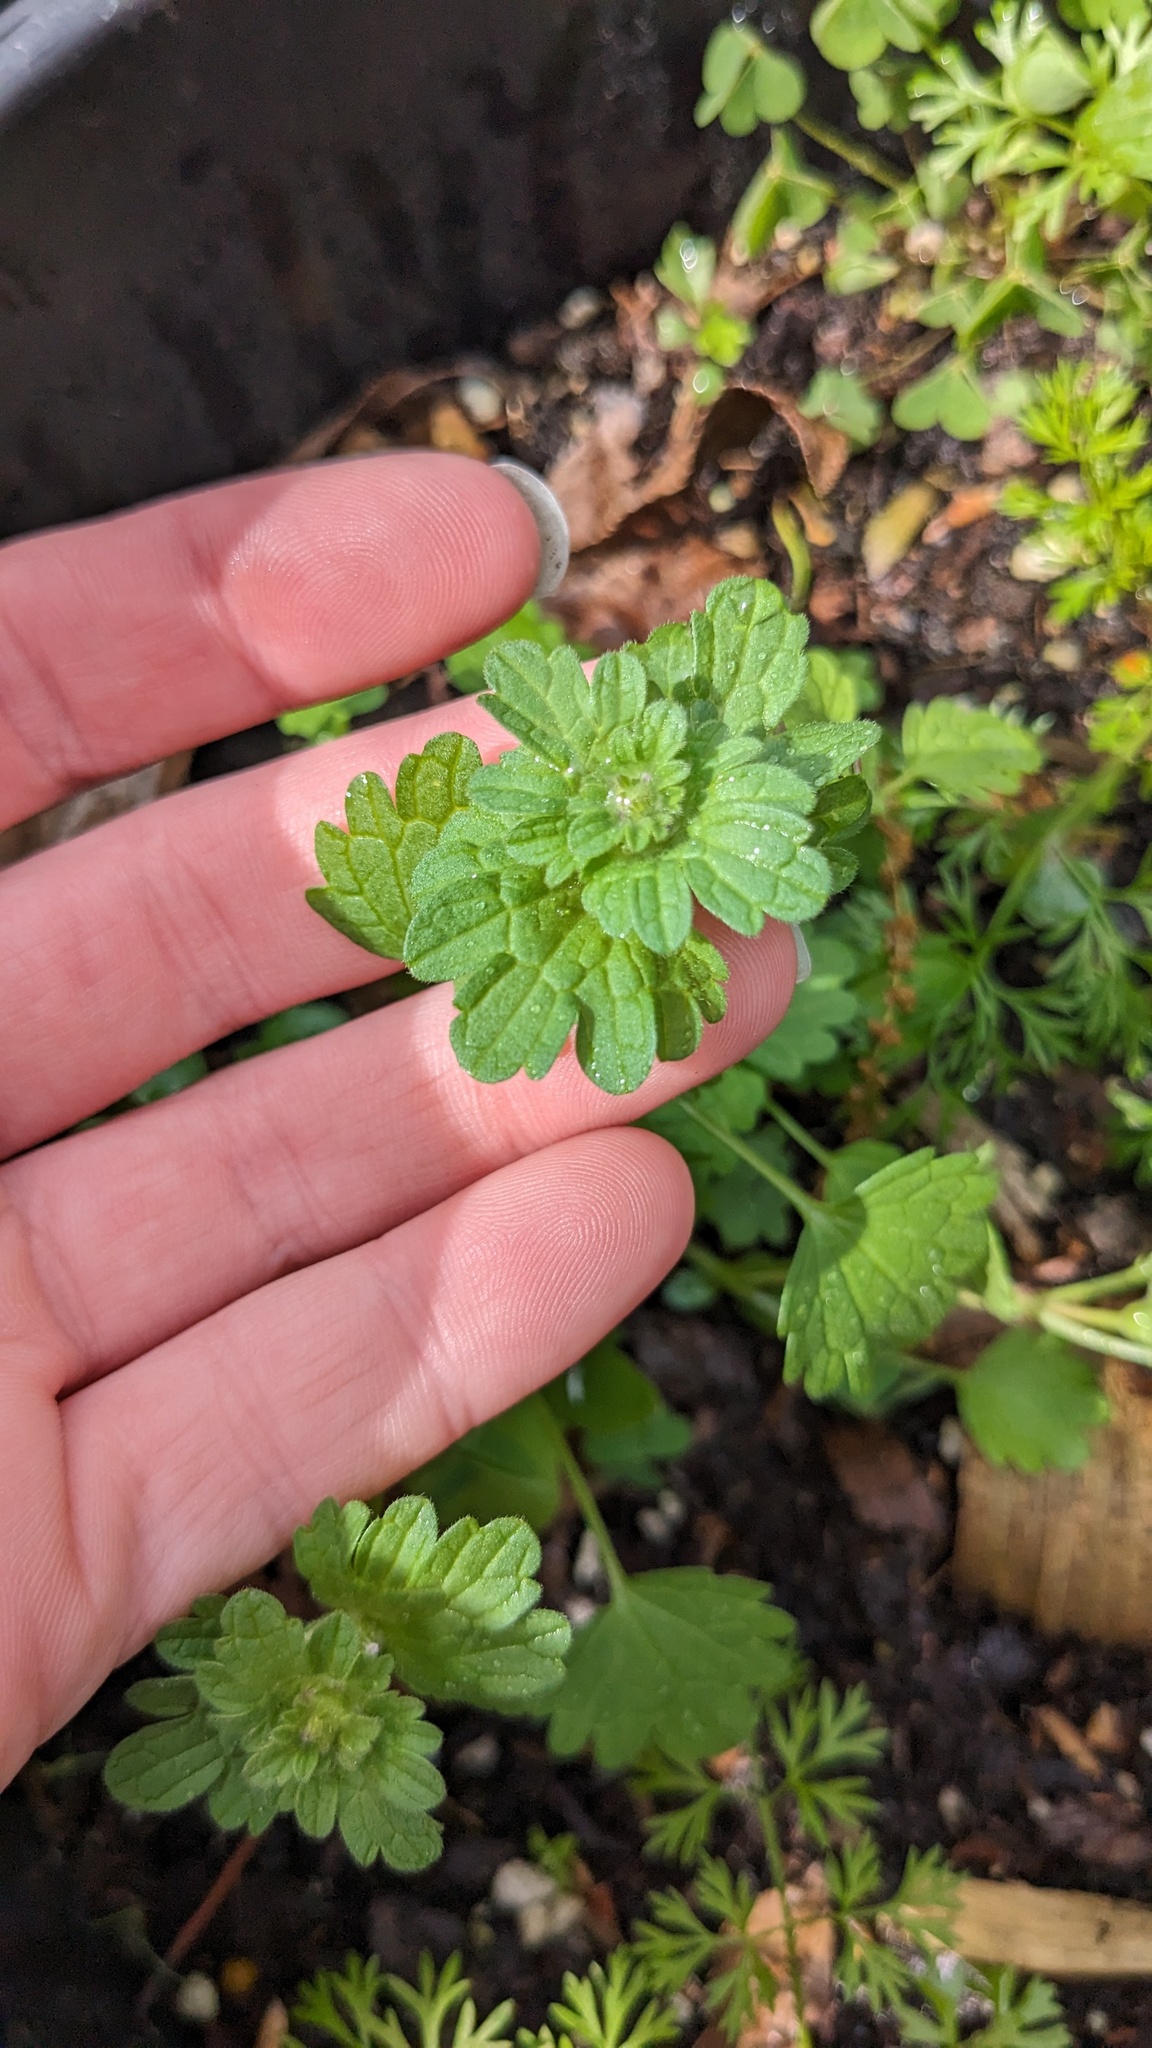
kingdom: Plantae
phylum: Tracheophyta
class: Magnoliopsida
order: Lamiales
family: Lamiaceae
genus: Lamium
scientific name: Lamium amplexicaule
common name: Henbit dead-nettle
